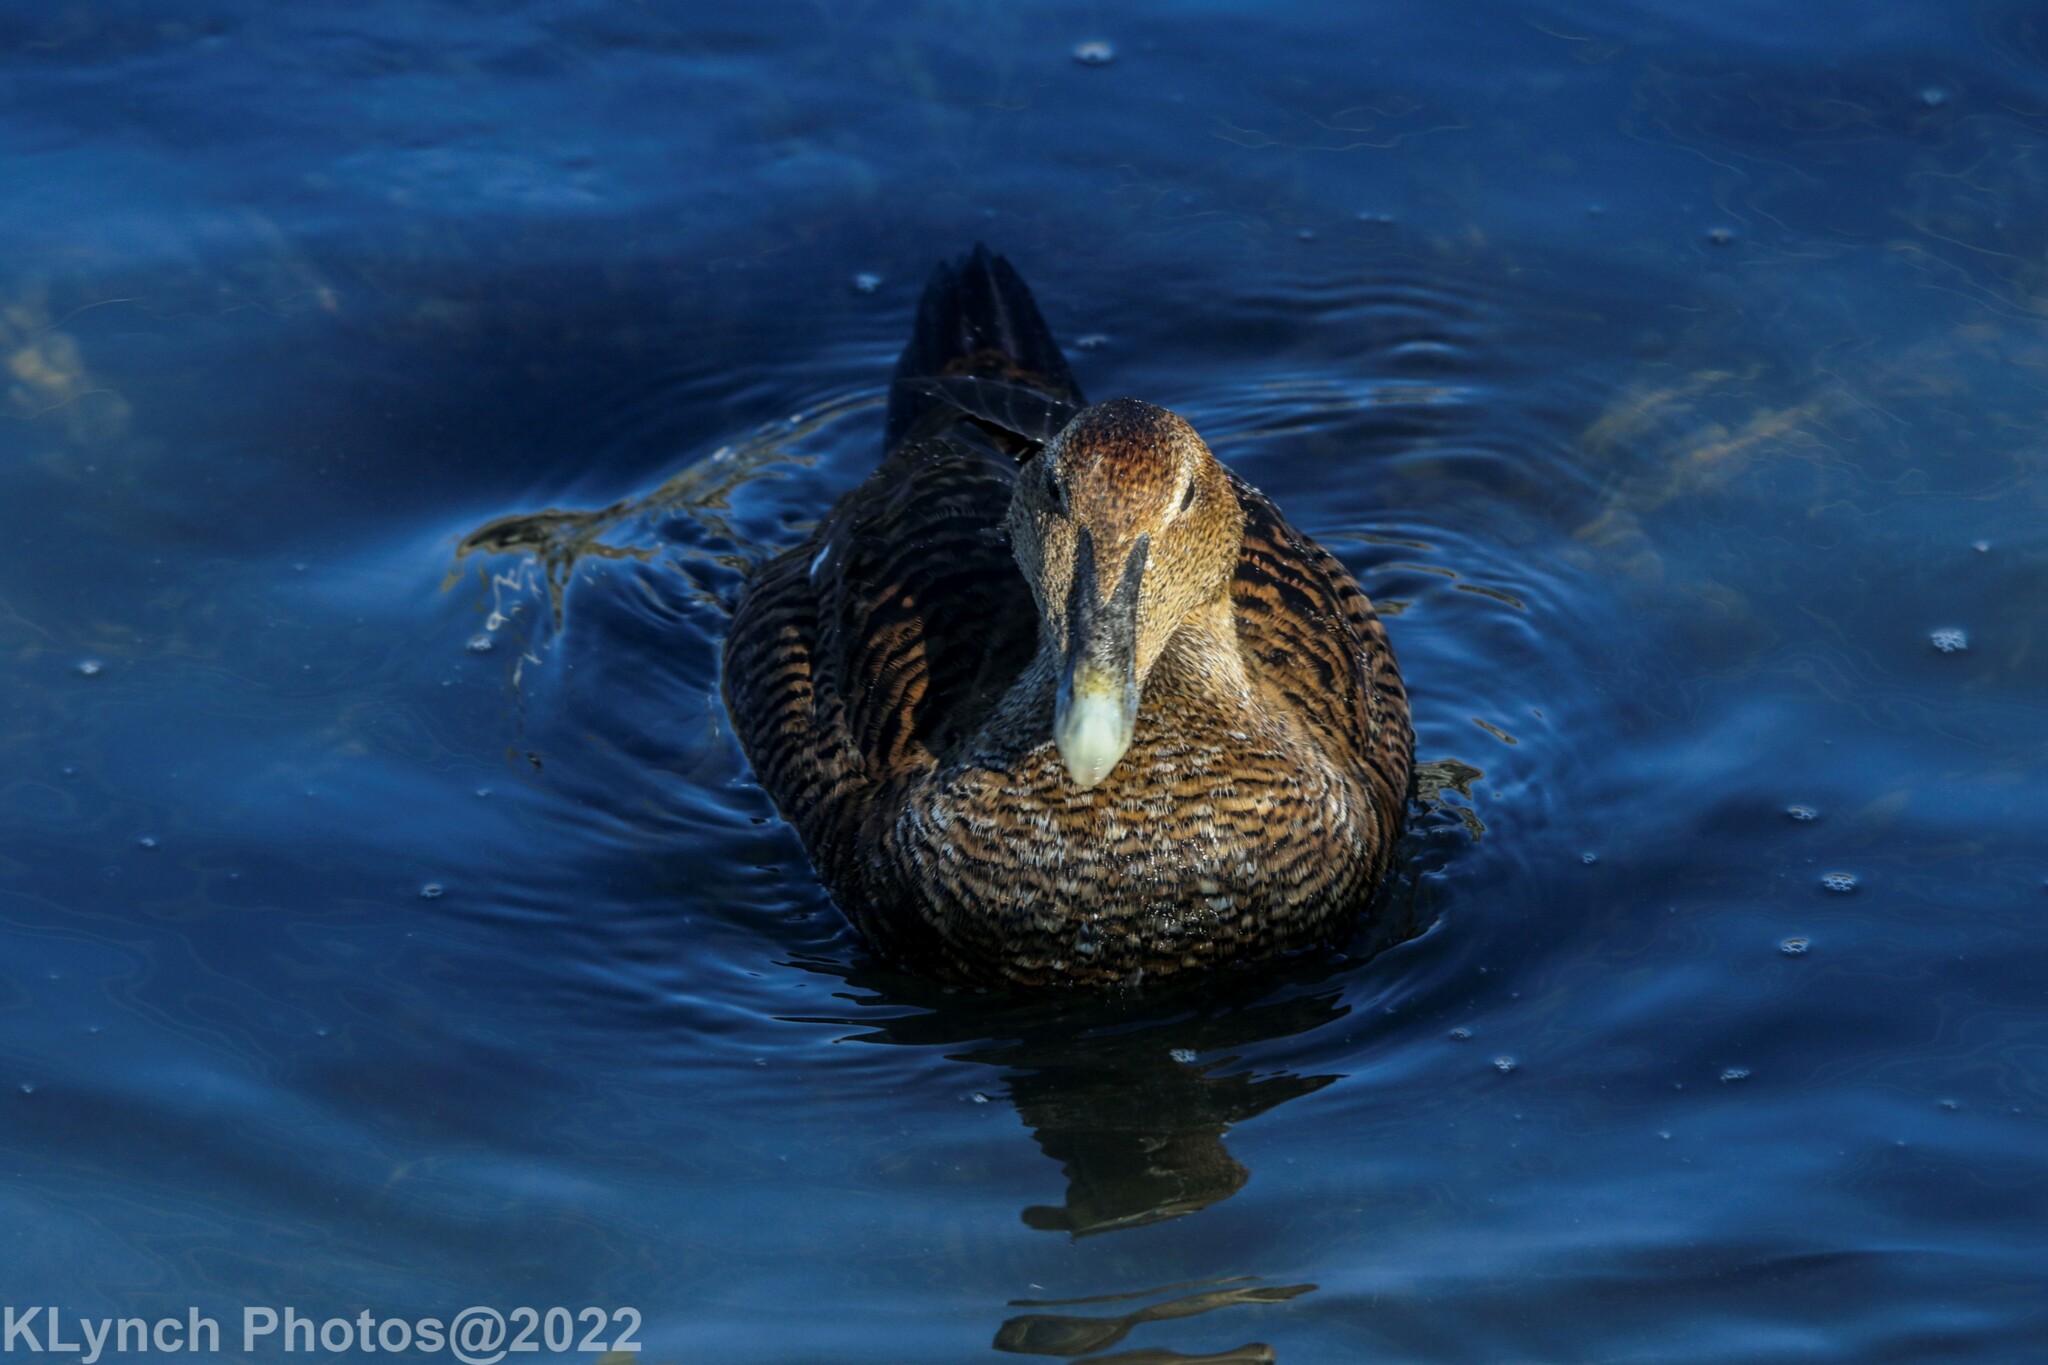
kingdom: Animalia
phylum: Chordata
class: Aves
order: Anseriformes
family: Anatidae
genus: Somateria
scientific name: Somateria mollissima
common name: Common eider
